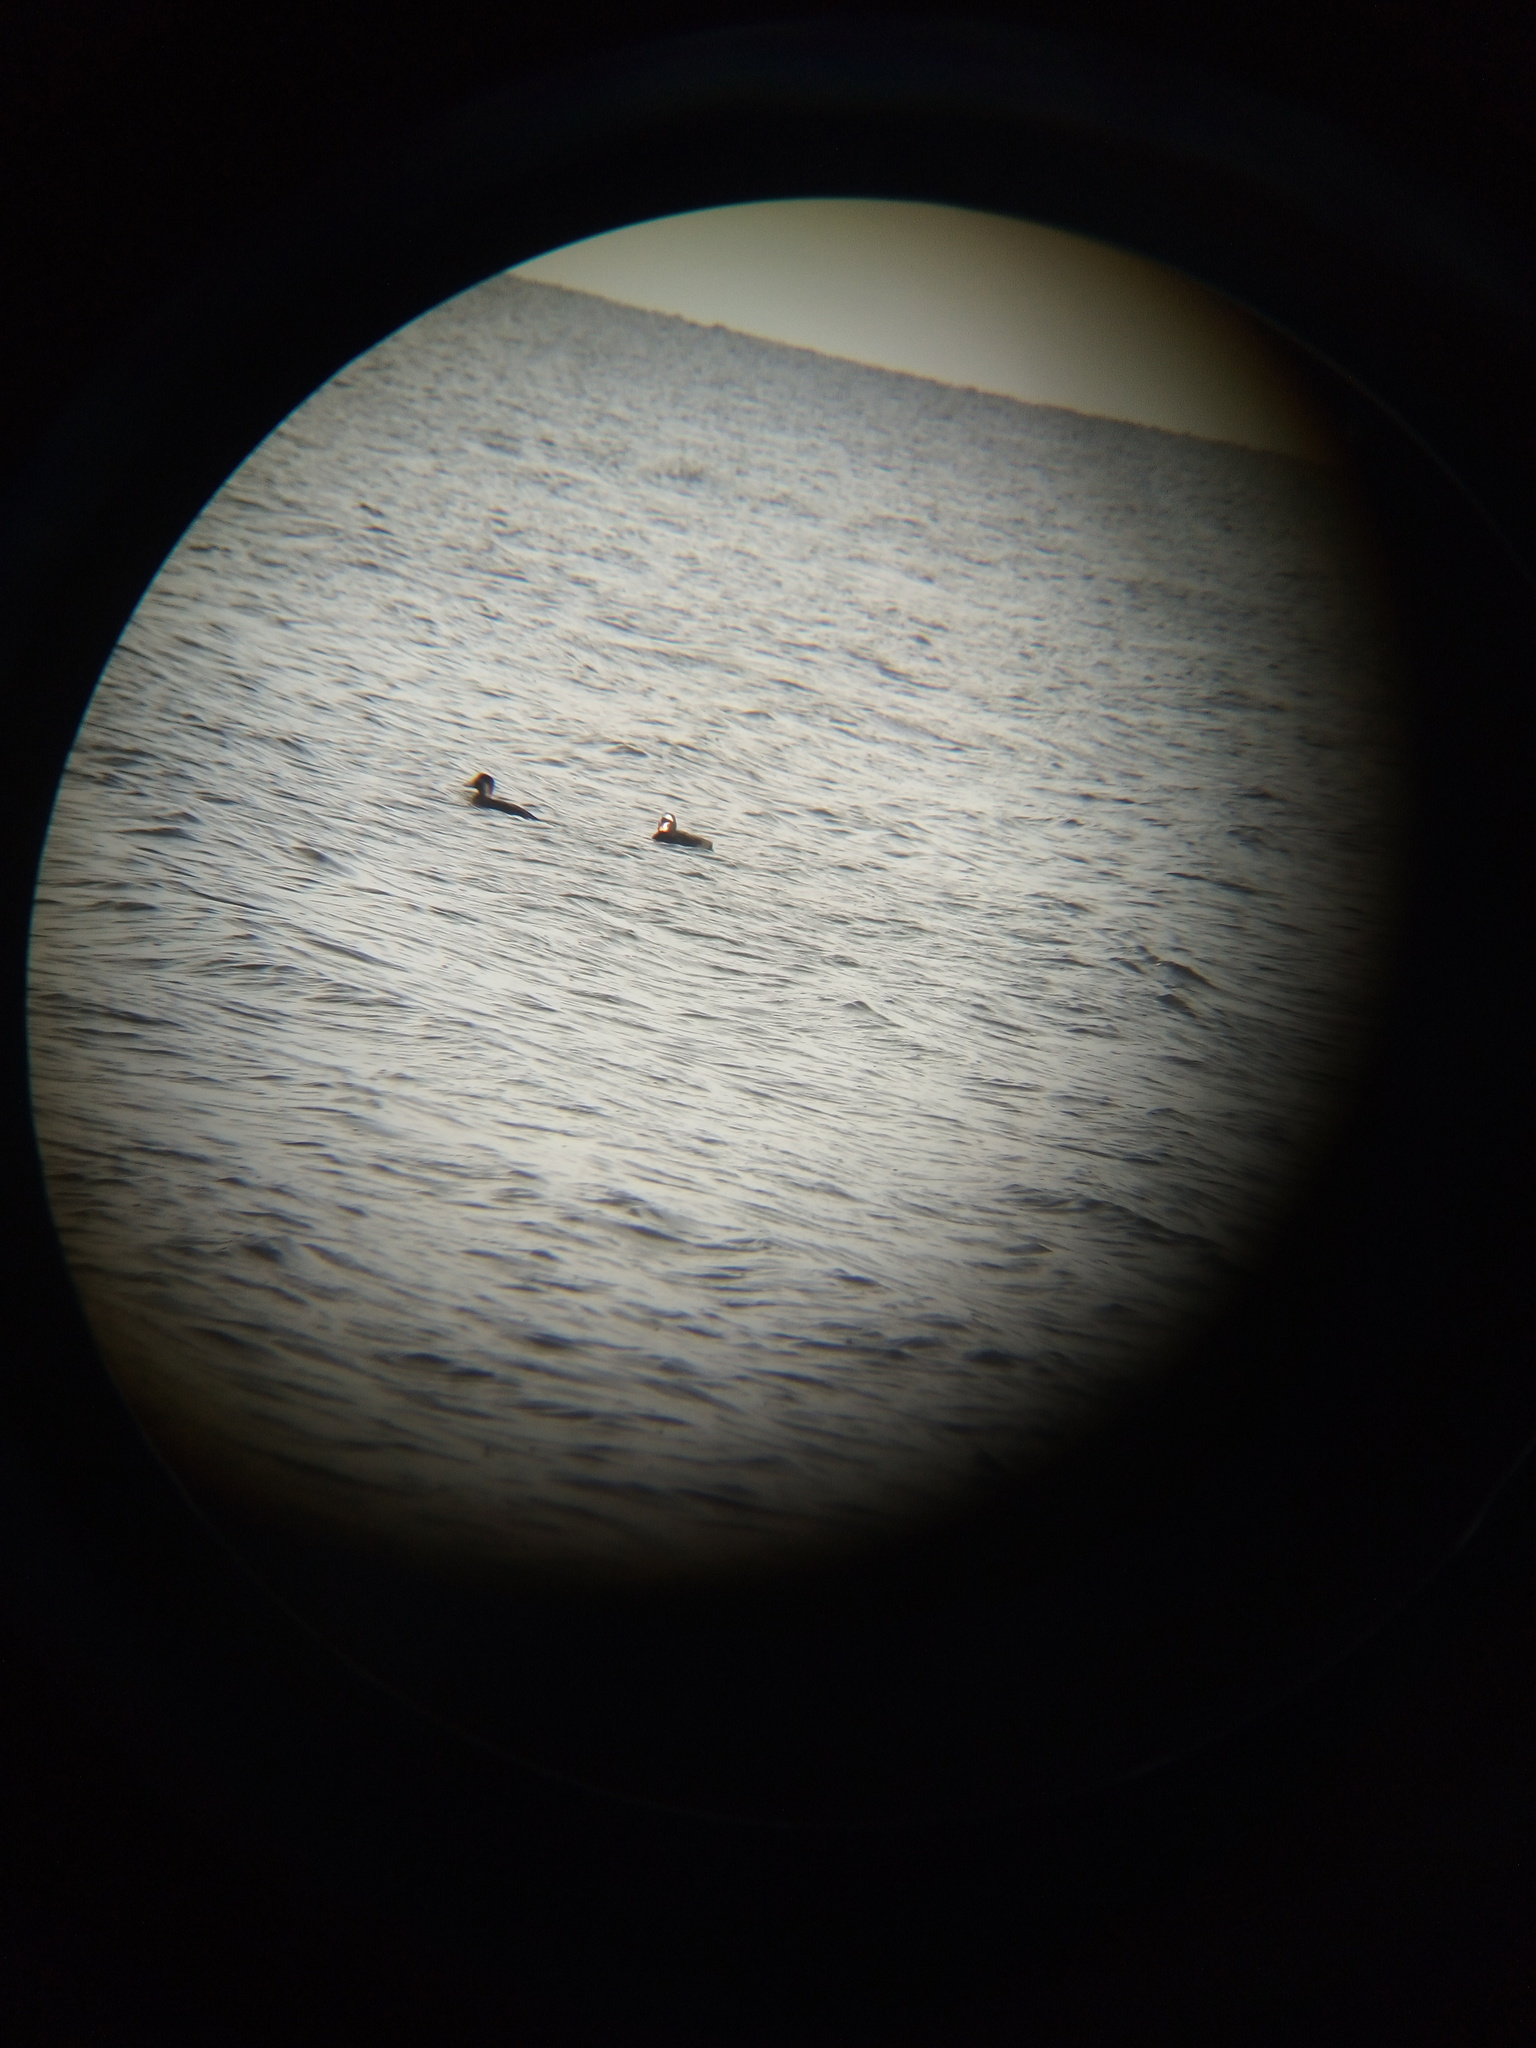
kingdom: Animalia
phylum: Chordata
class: Aves
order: Anseriformes
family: Anatidae
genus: Melanitta
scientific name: Melanitta perspicillata
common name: Surf scoter
